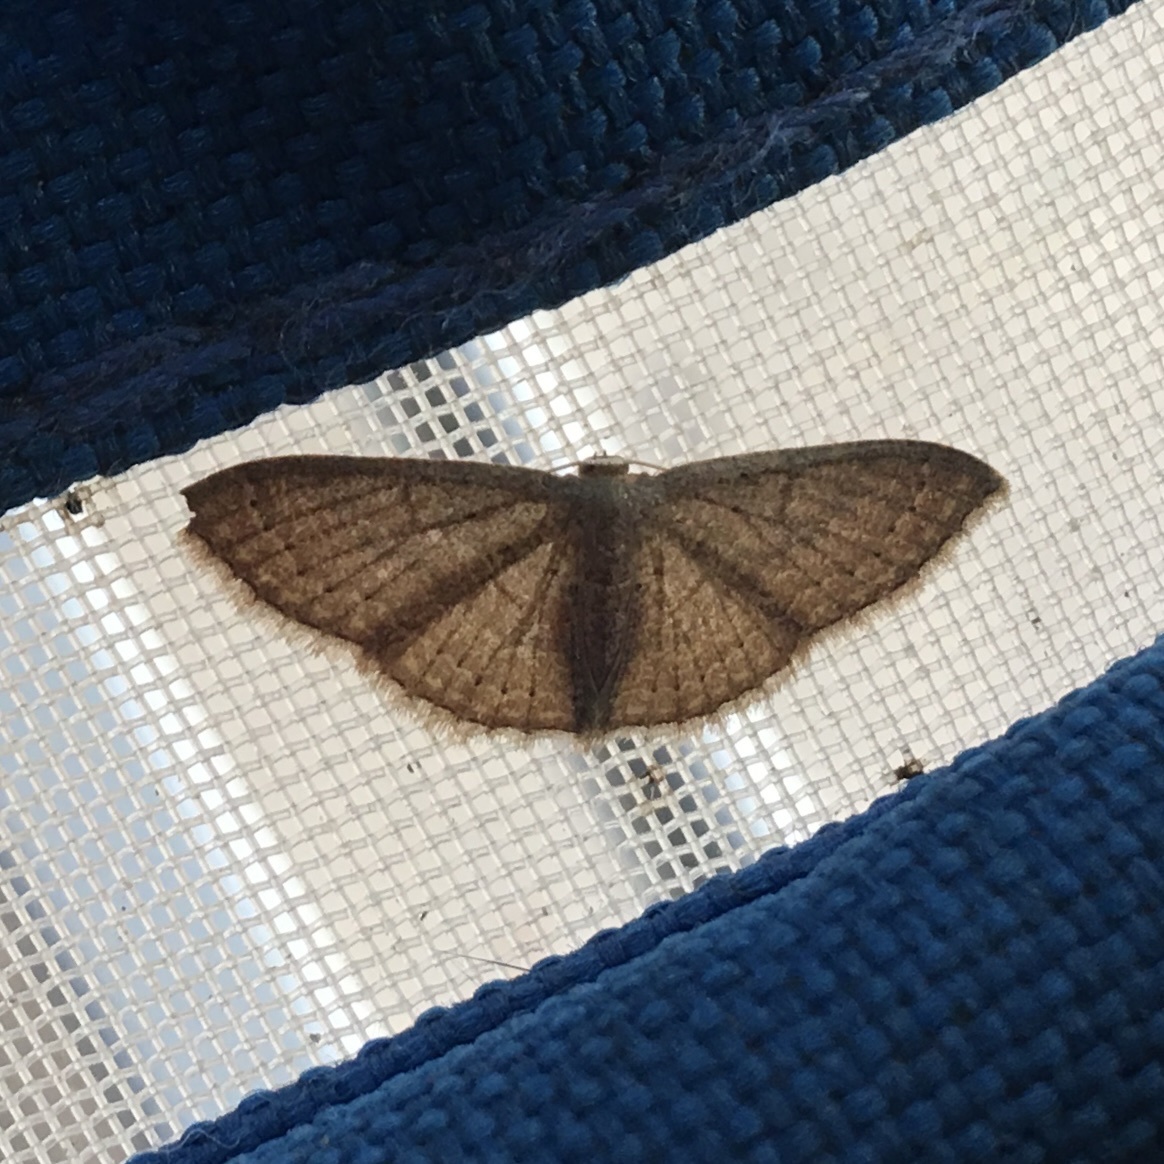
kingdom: Animalia
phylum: Arthropoda
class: Insecta
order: Lepidoptera
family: Geometridae
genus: Pleuroprucha
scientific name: Pleuroprucha insulsaria
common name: Common tan wave
